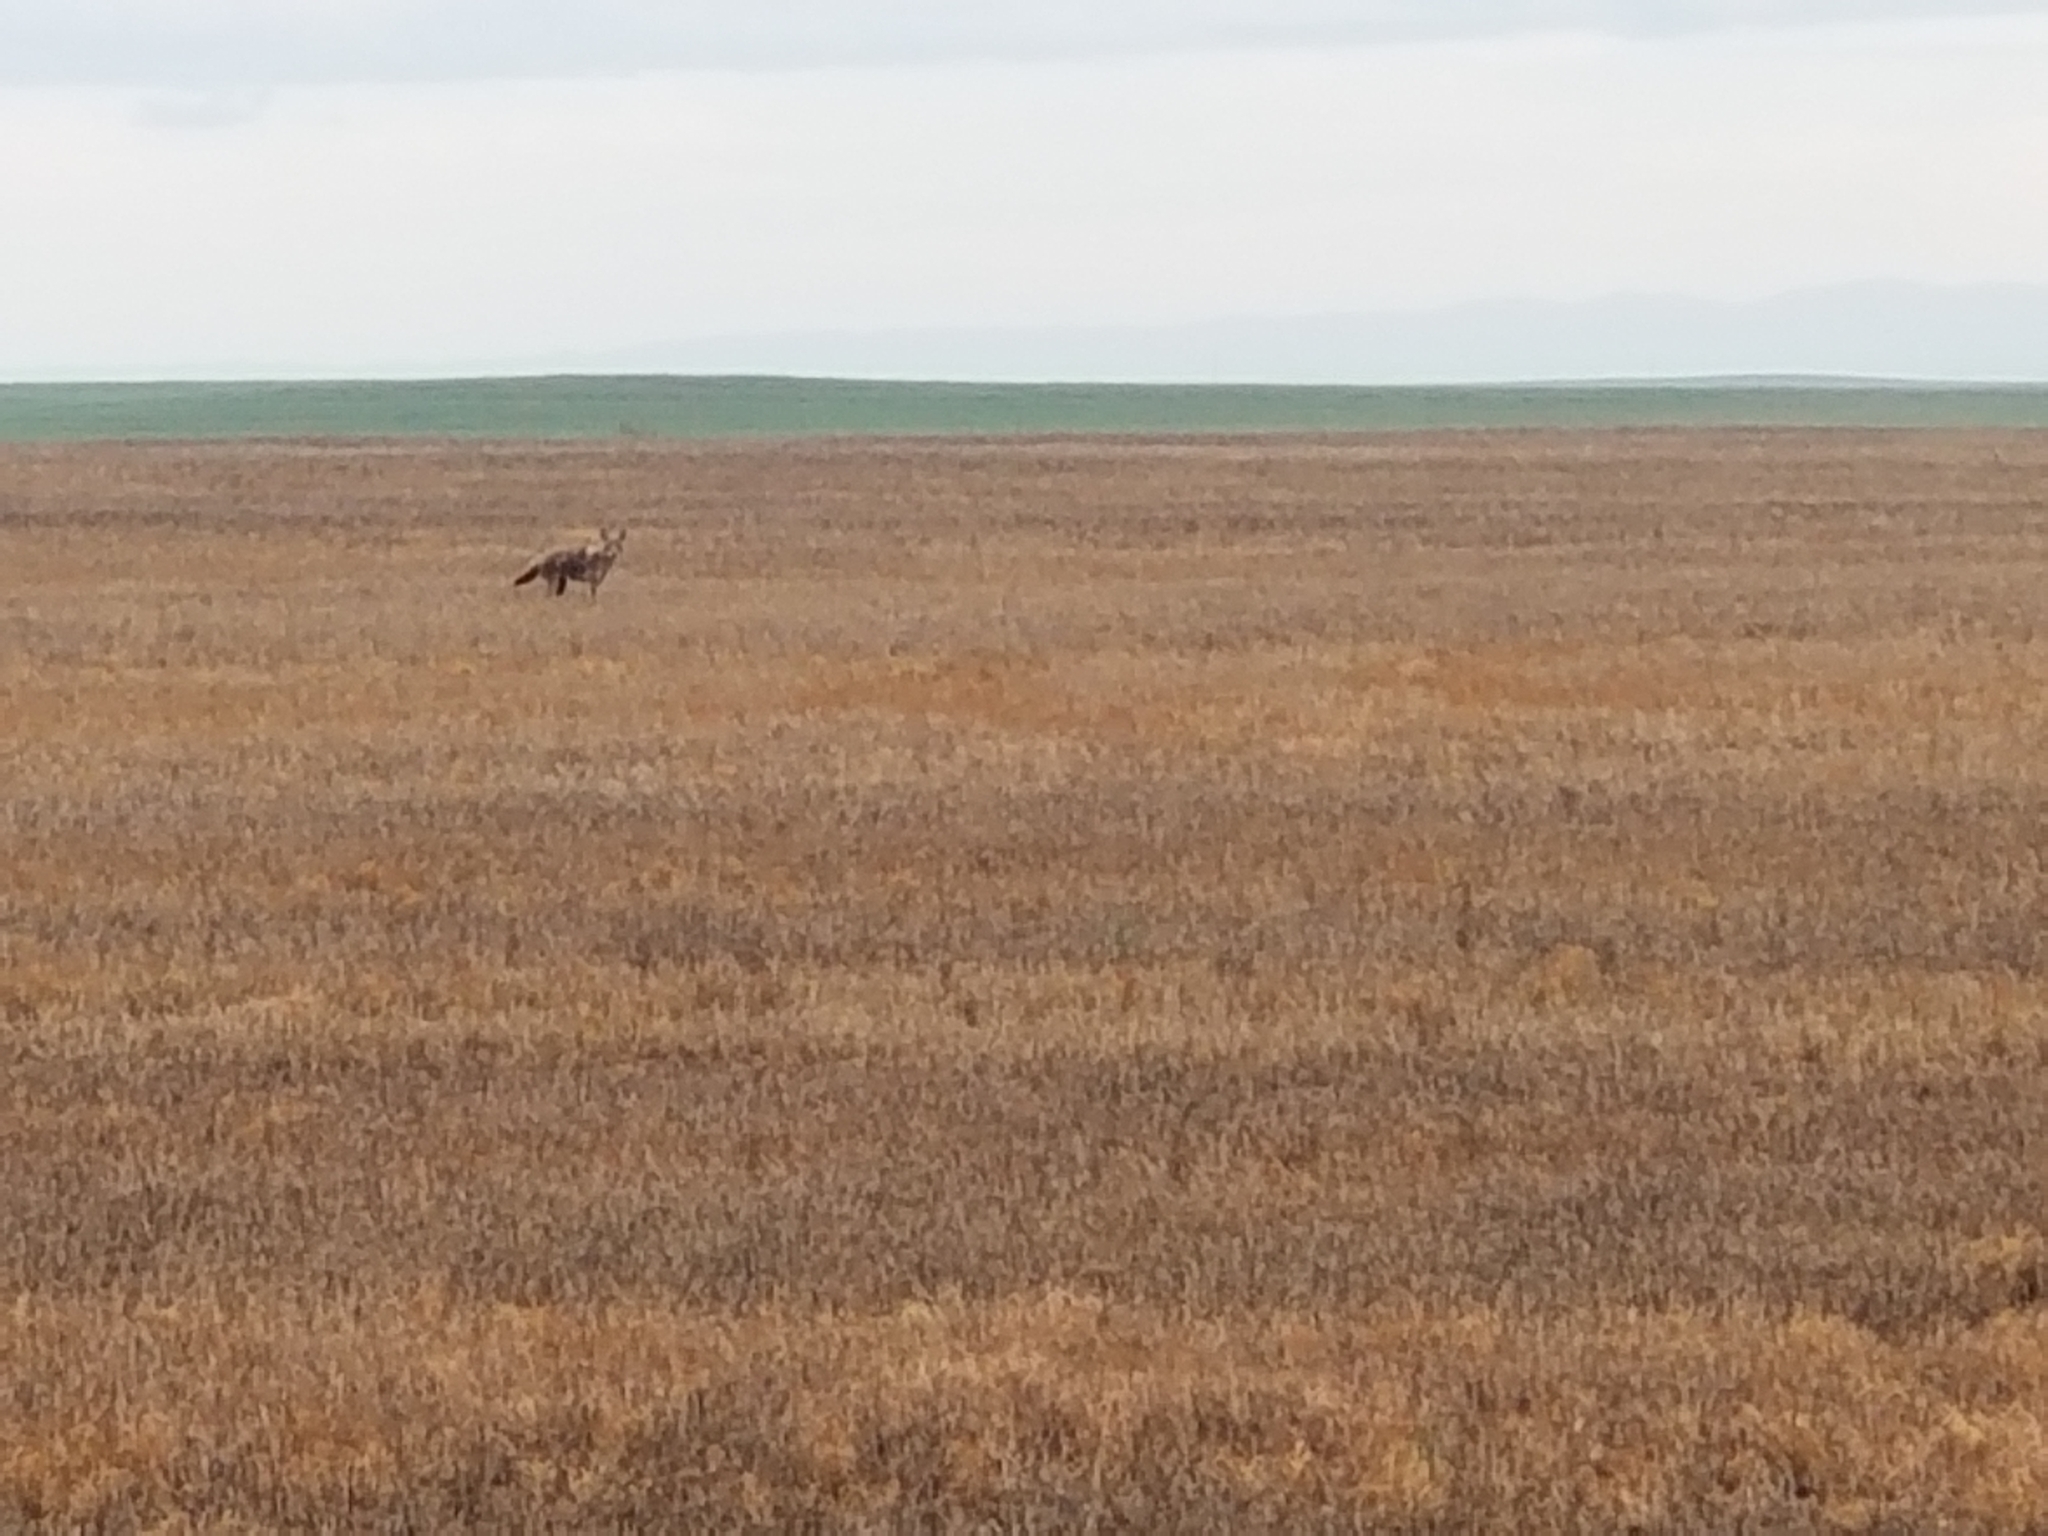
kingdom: Animalia
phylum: Chordata
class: Mammalia
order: Carnivora
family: Canidae
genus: Canis
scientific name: Canis latrans
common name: Coyote
